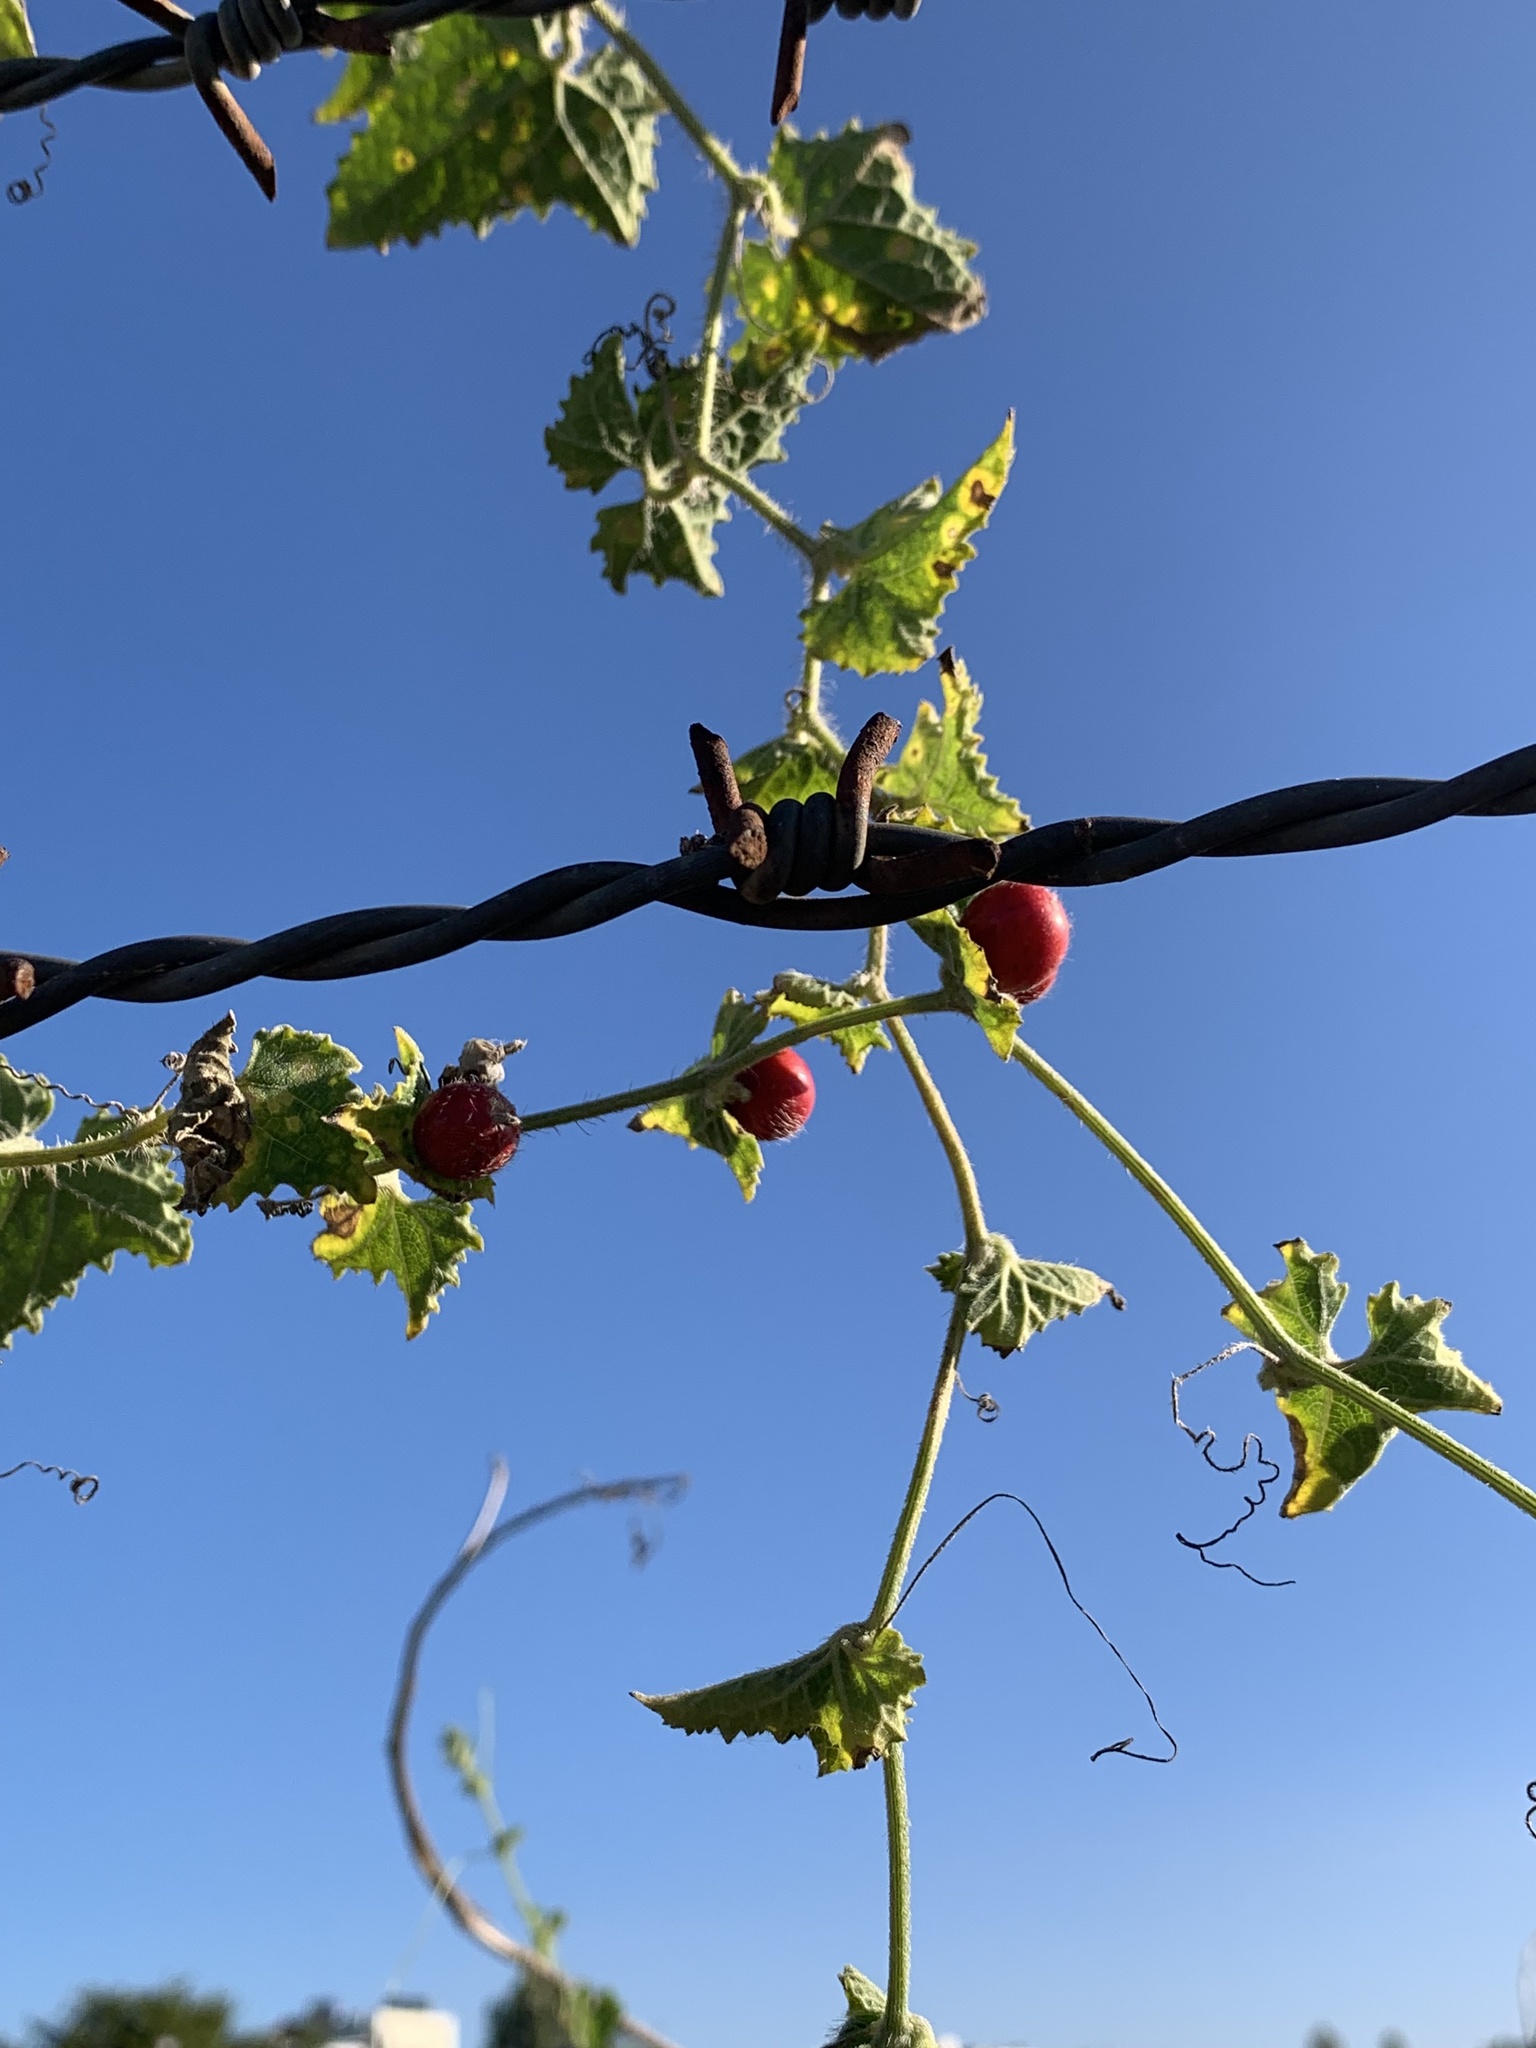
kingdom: Plantae
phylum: Tracheophyta
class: Magnoliopsida
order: Cucurbitales
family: Cucurbitaceae
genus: Cucumis
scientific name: Cucumis maderaspatanus
